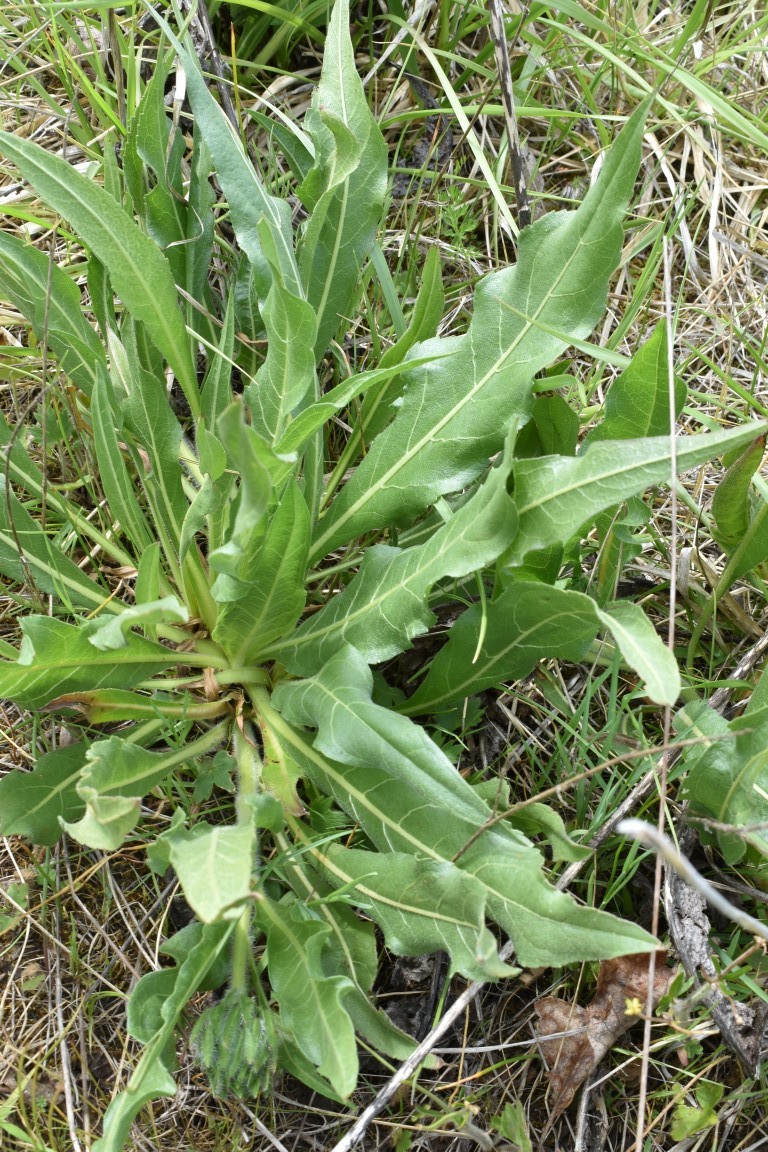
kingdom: Plantae
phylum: Tracheophyta
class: Magnoliopsida
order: Asterales
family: Asteraceae
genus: Wyethia
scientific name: Wyethia angustifolia
